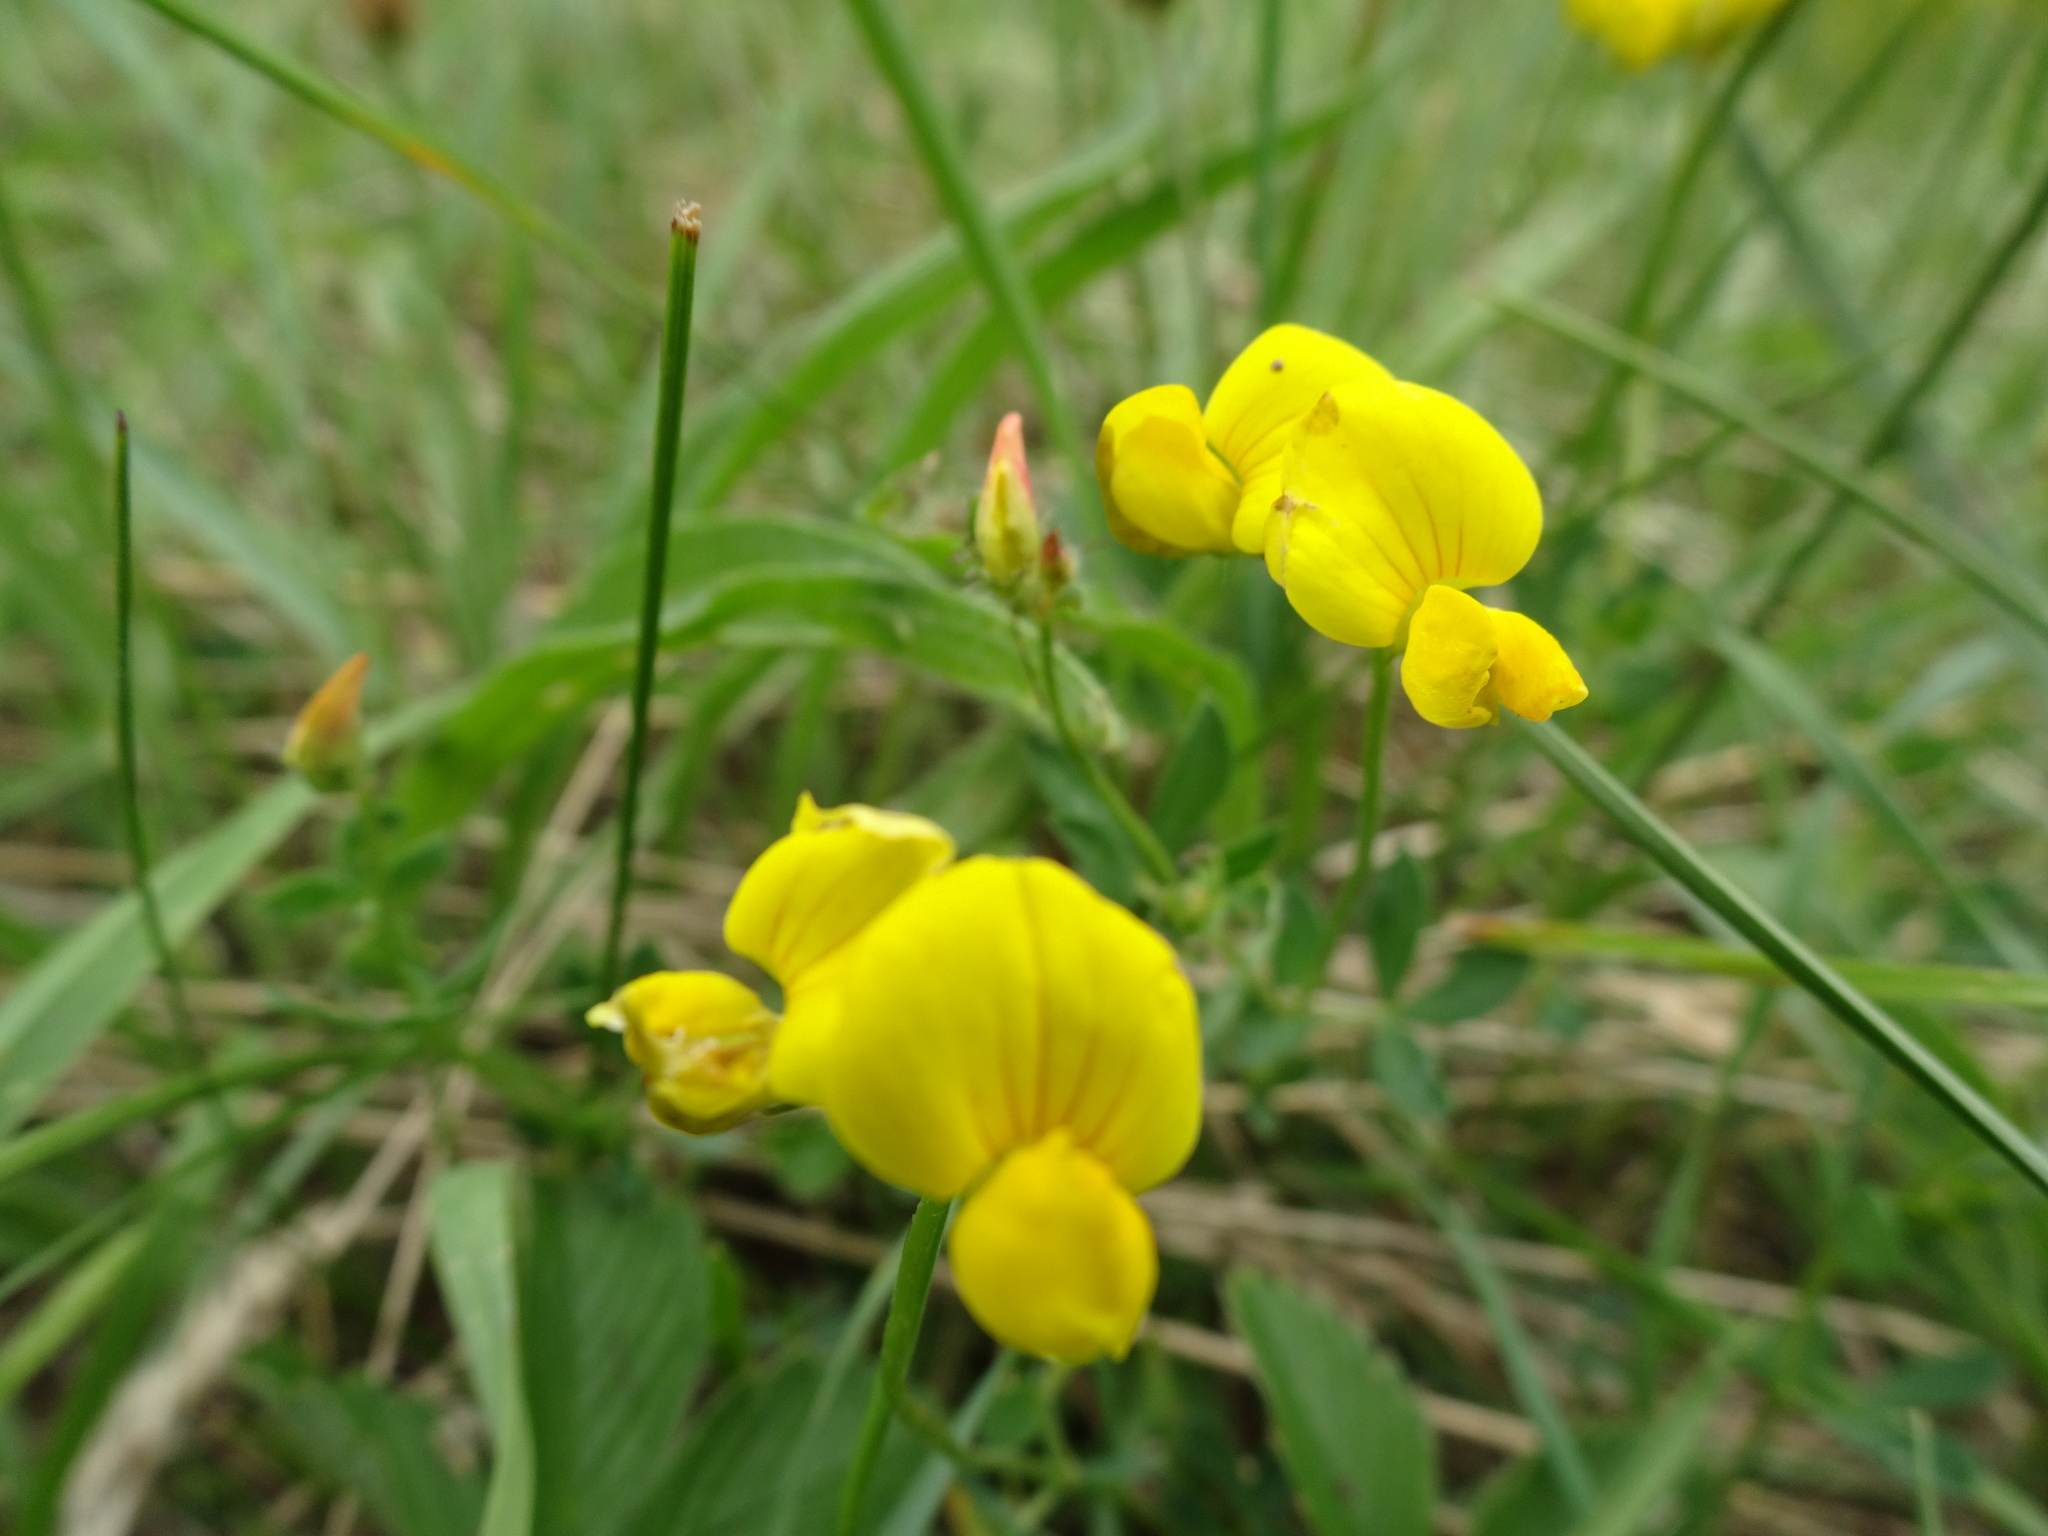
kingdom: Plantae
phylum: Tracheophyta
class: Magnoliopsida
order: Fabales
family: Fabaceae
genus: Lotus
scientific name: Lotus corniculatus
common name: Common bird's-foot-trefoil
